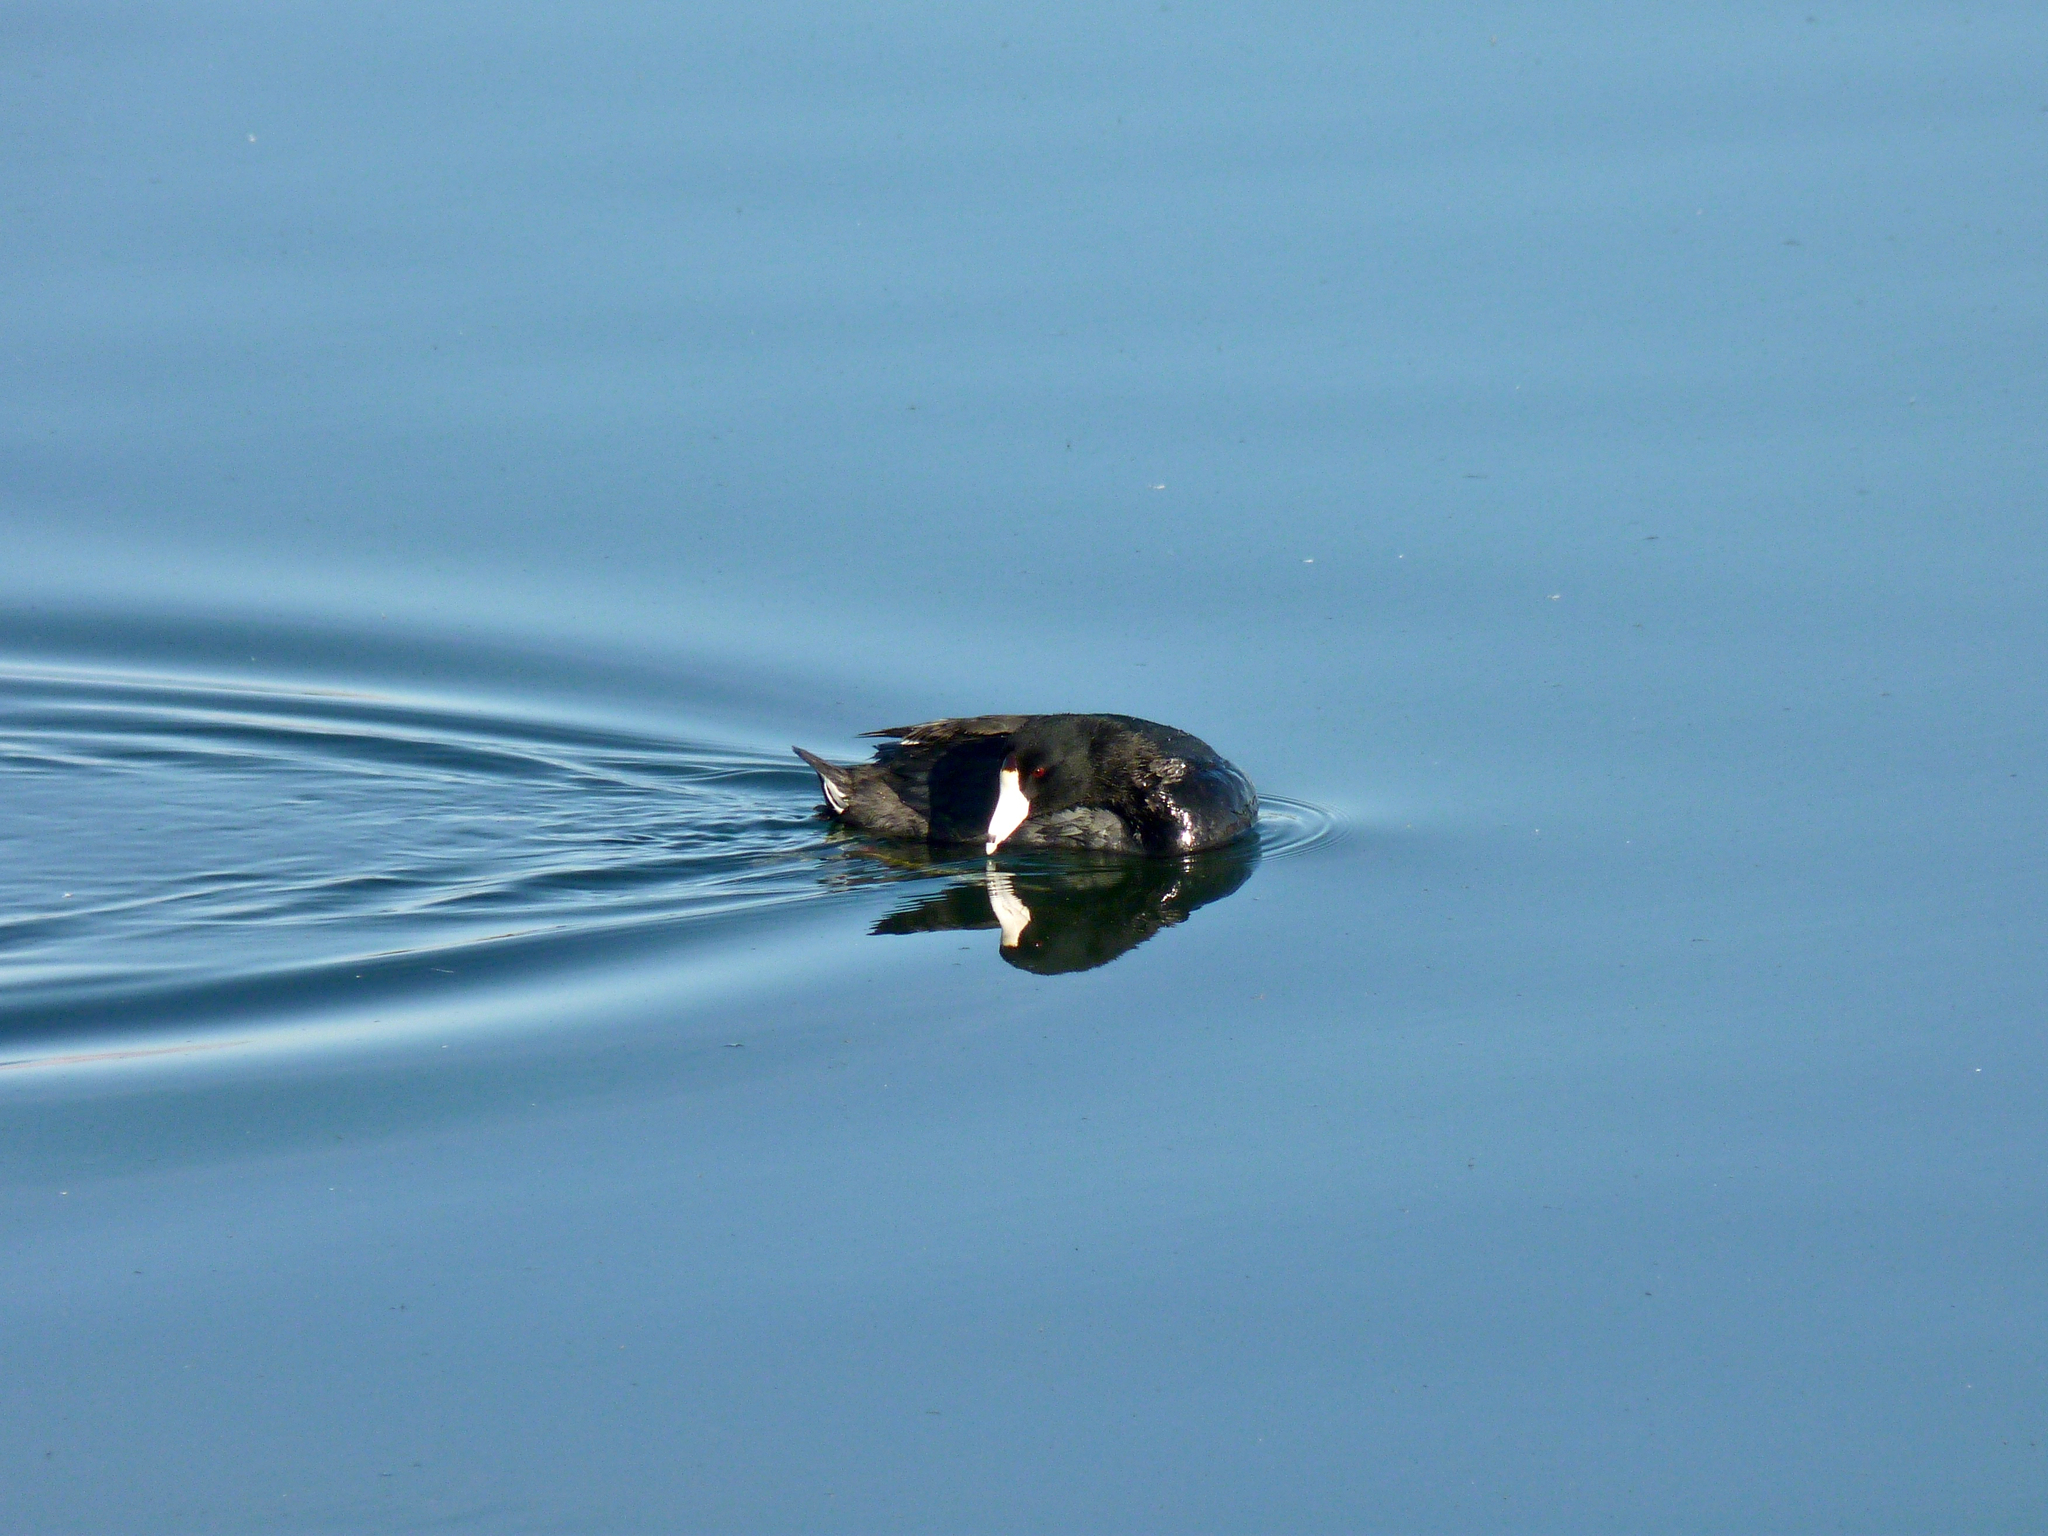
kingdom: Animalia
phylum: Chordata
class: Aves
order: Gruiformes
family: Rallidae
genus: Fulica
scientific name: Fulica americana
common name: American coot
